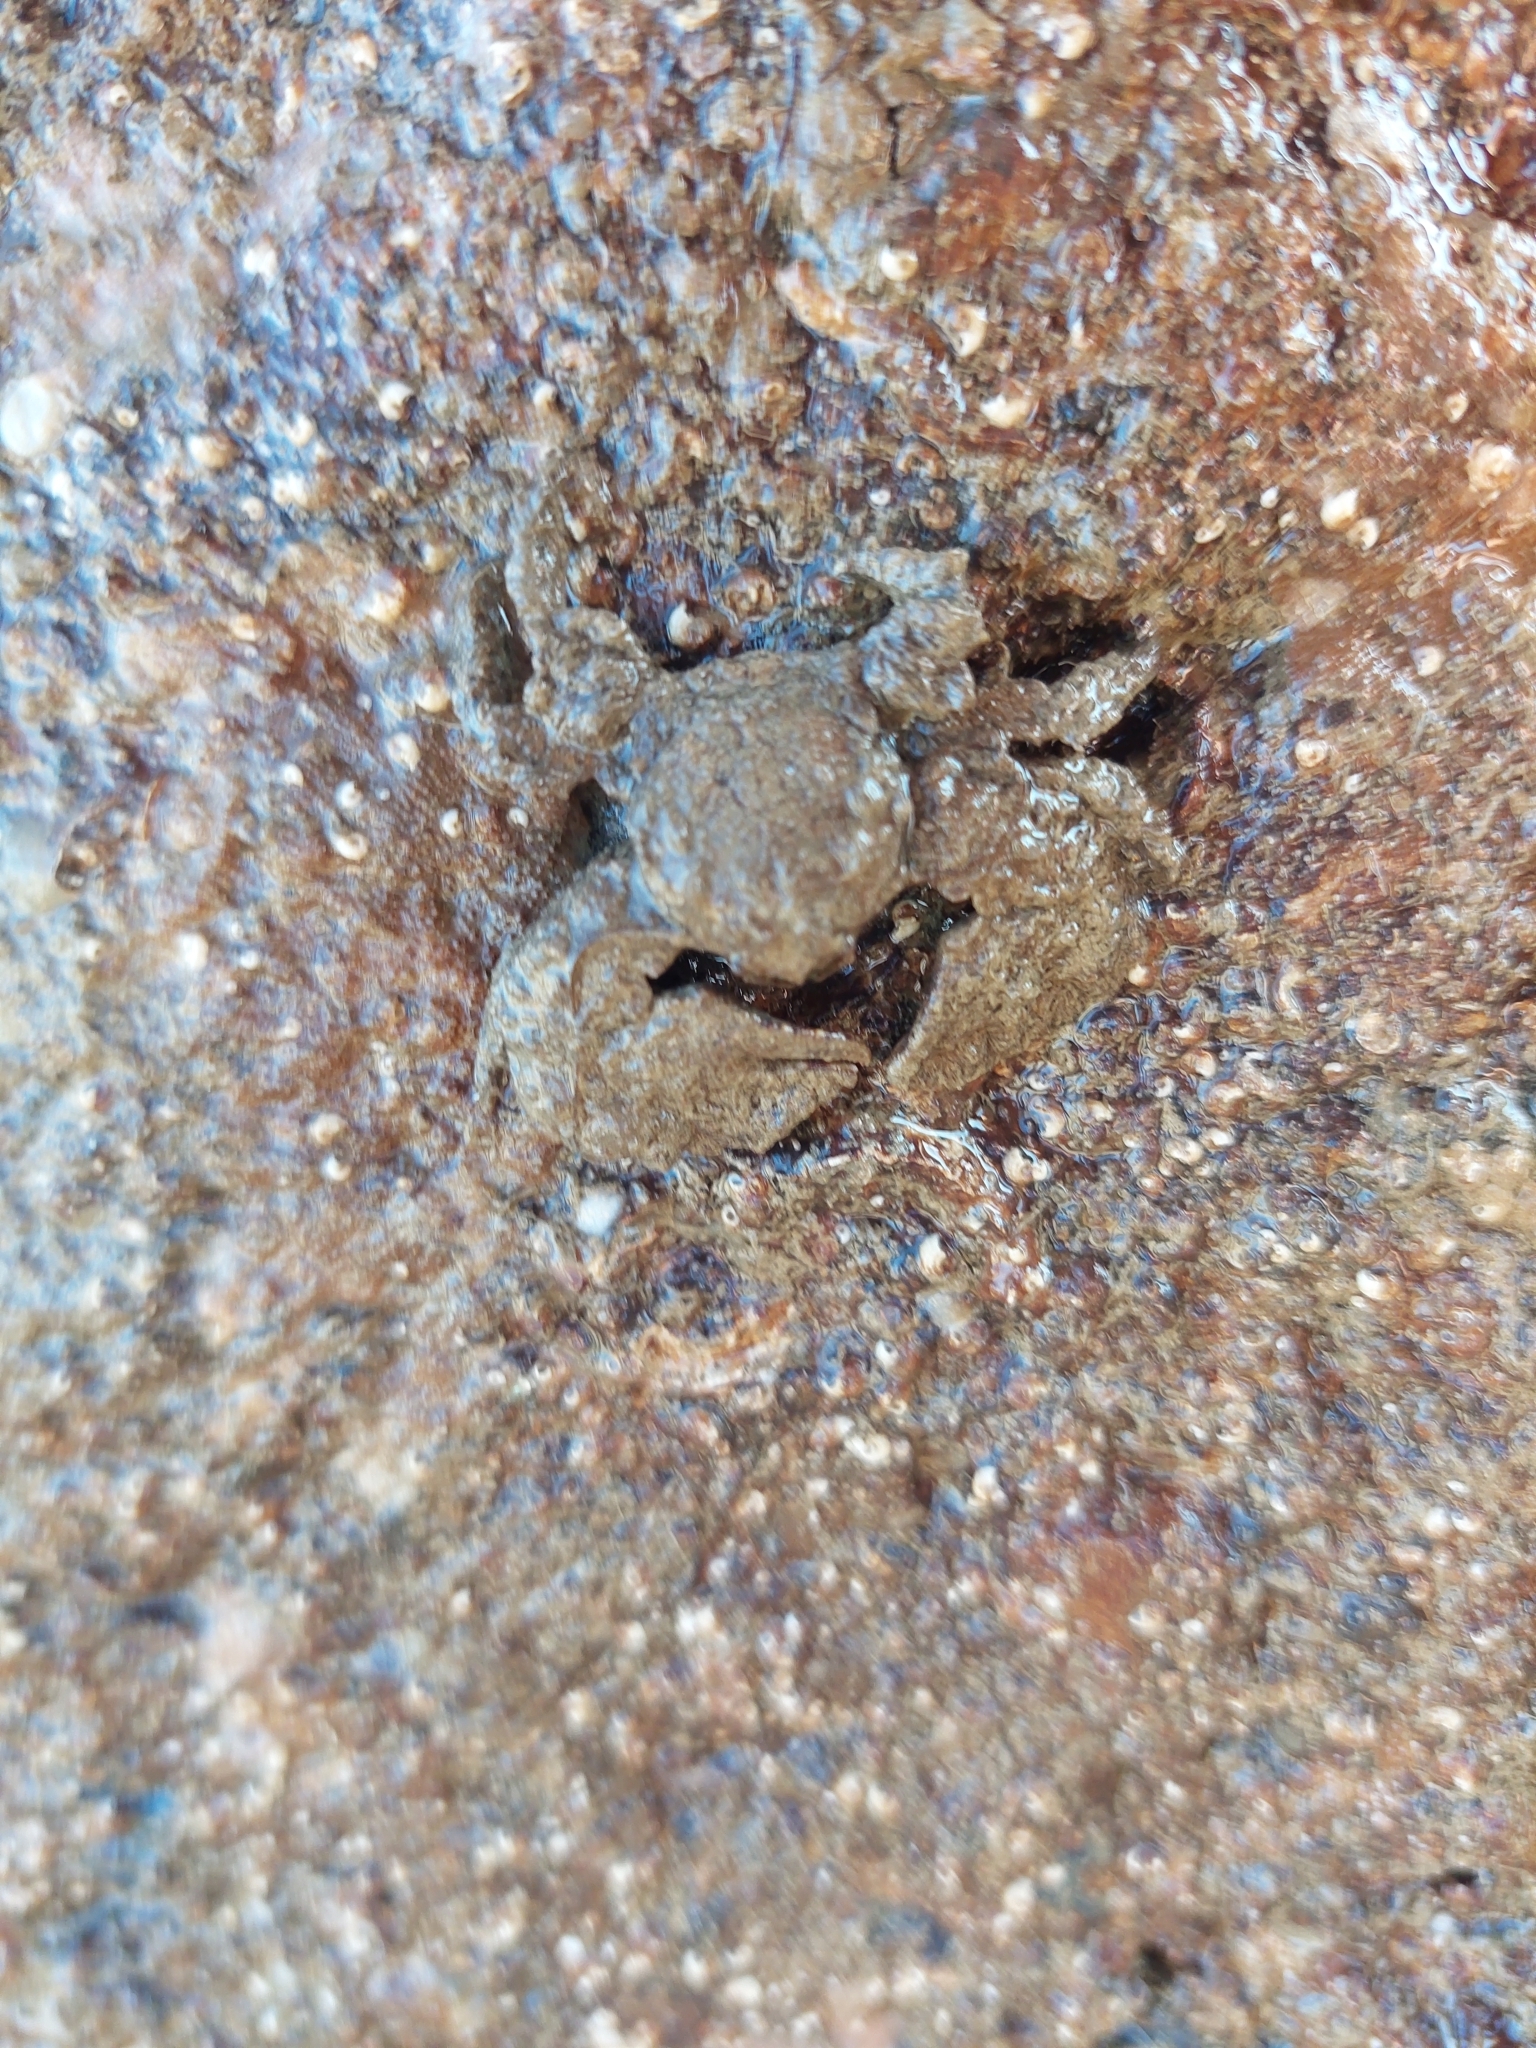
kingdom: Animalia
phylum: Arthropoda
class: Malacostraca
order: Decapoda
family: Porcellanidae
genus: Porcellana
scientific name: Porcellana platycheles
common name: Porcelain crab
